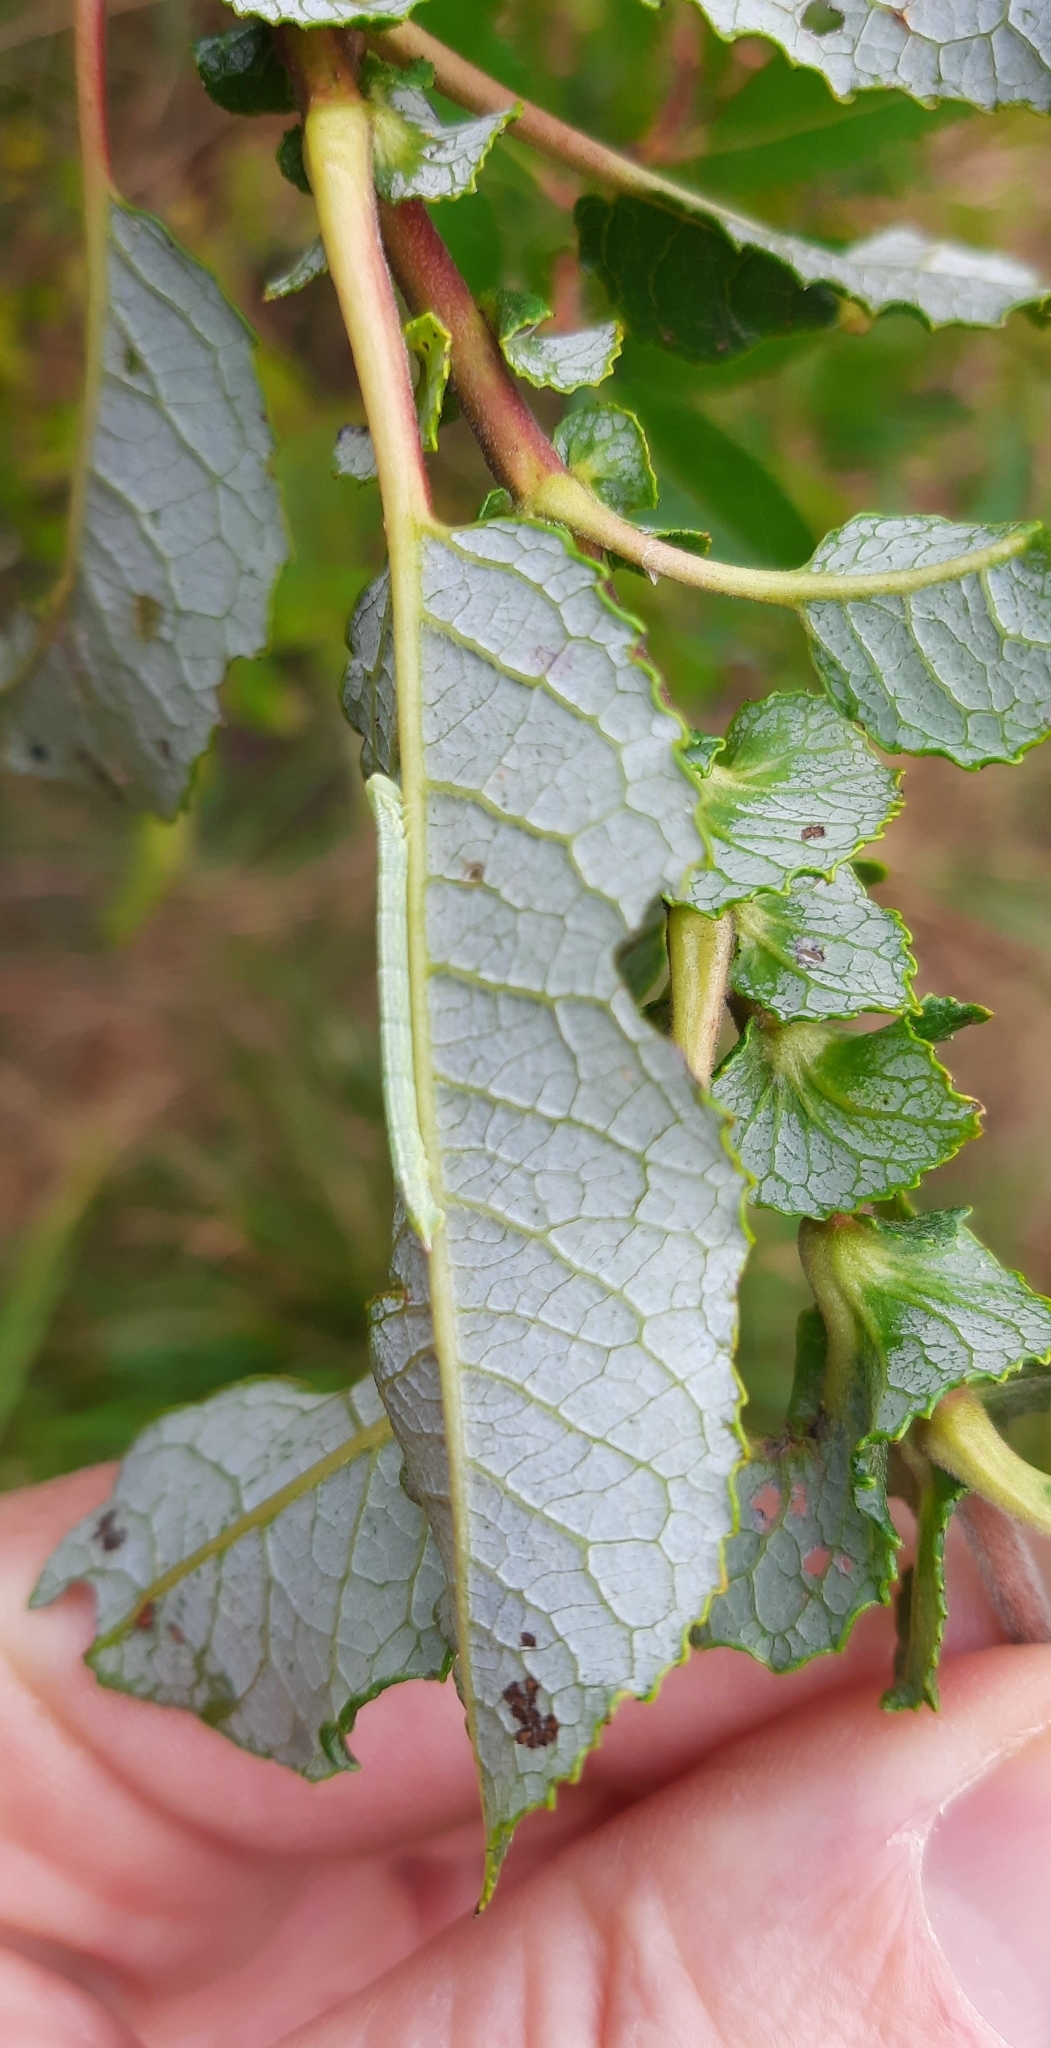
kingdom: Animalia
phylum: Arthropoda
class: Insecta
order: Lepidoptera
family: Geometridae
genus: Pterapherapteryx
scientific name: Pterapherapteryx sexalata
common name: Small seraphim
